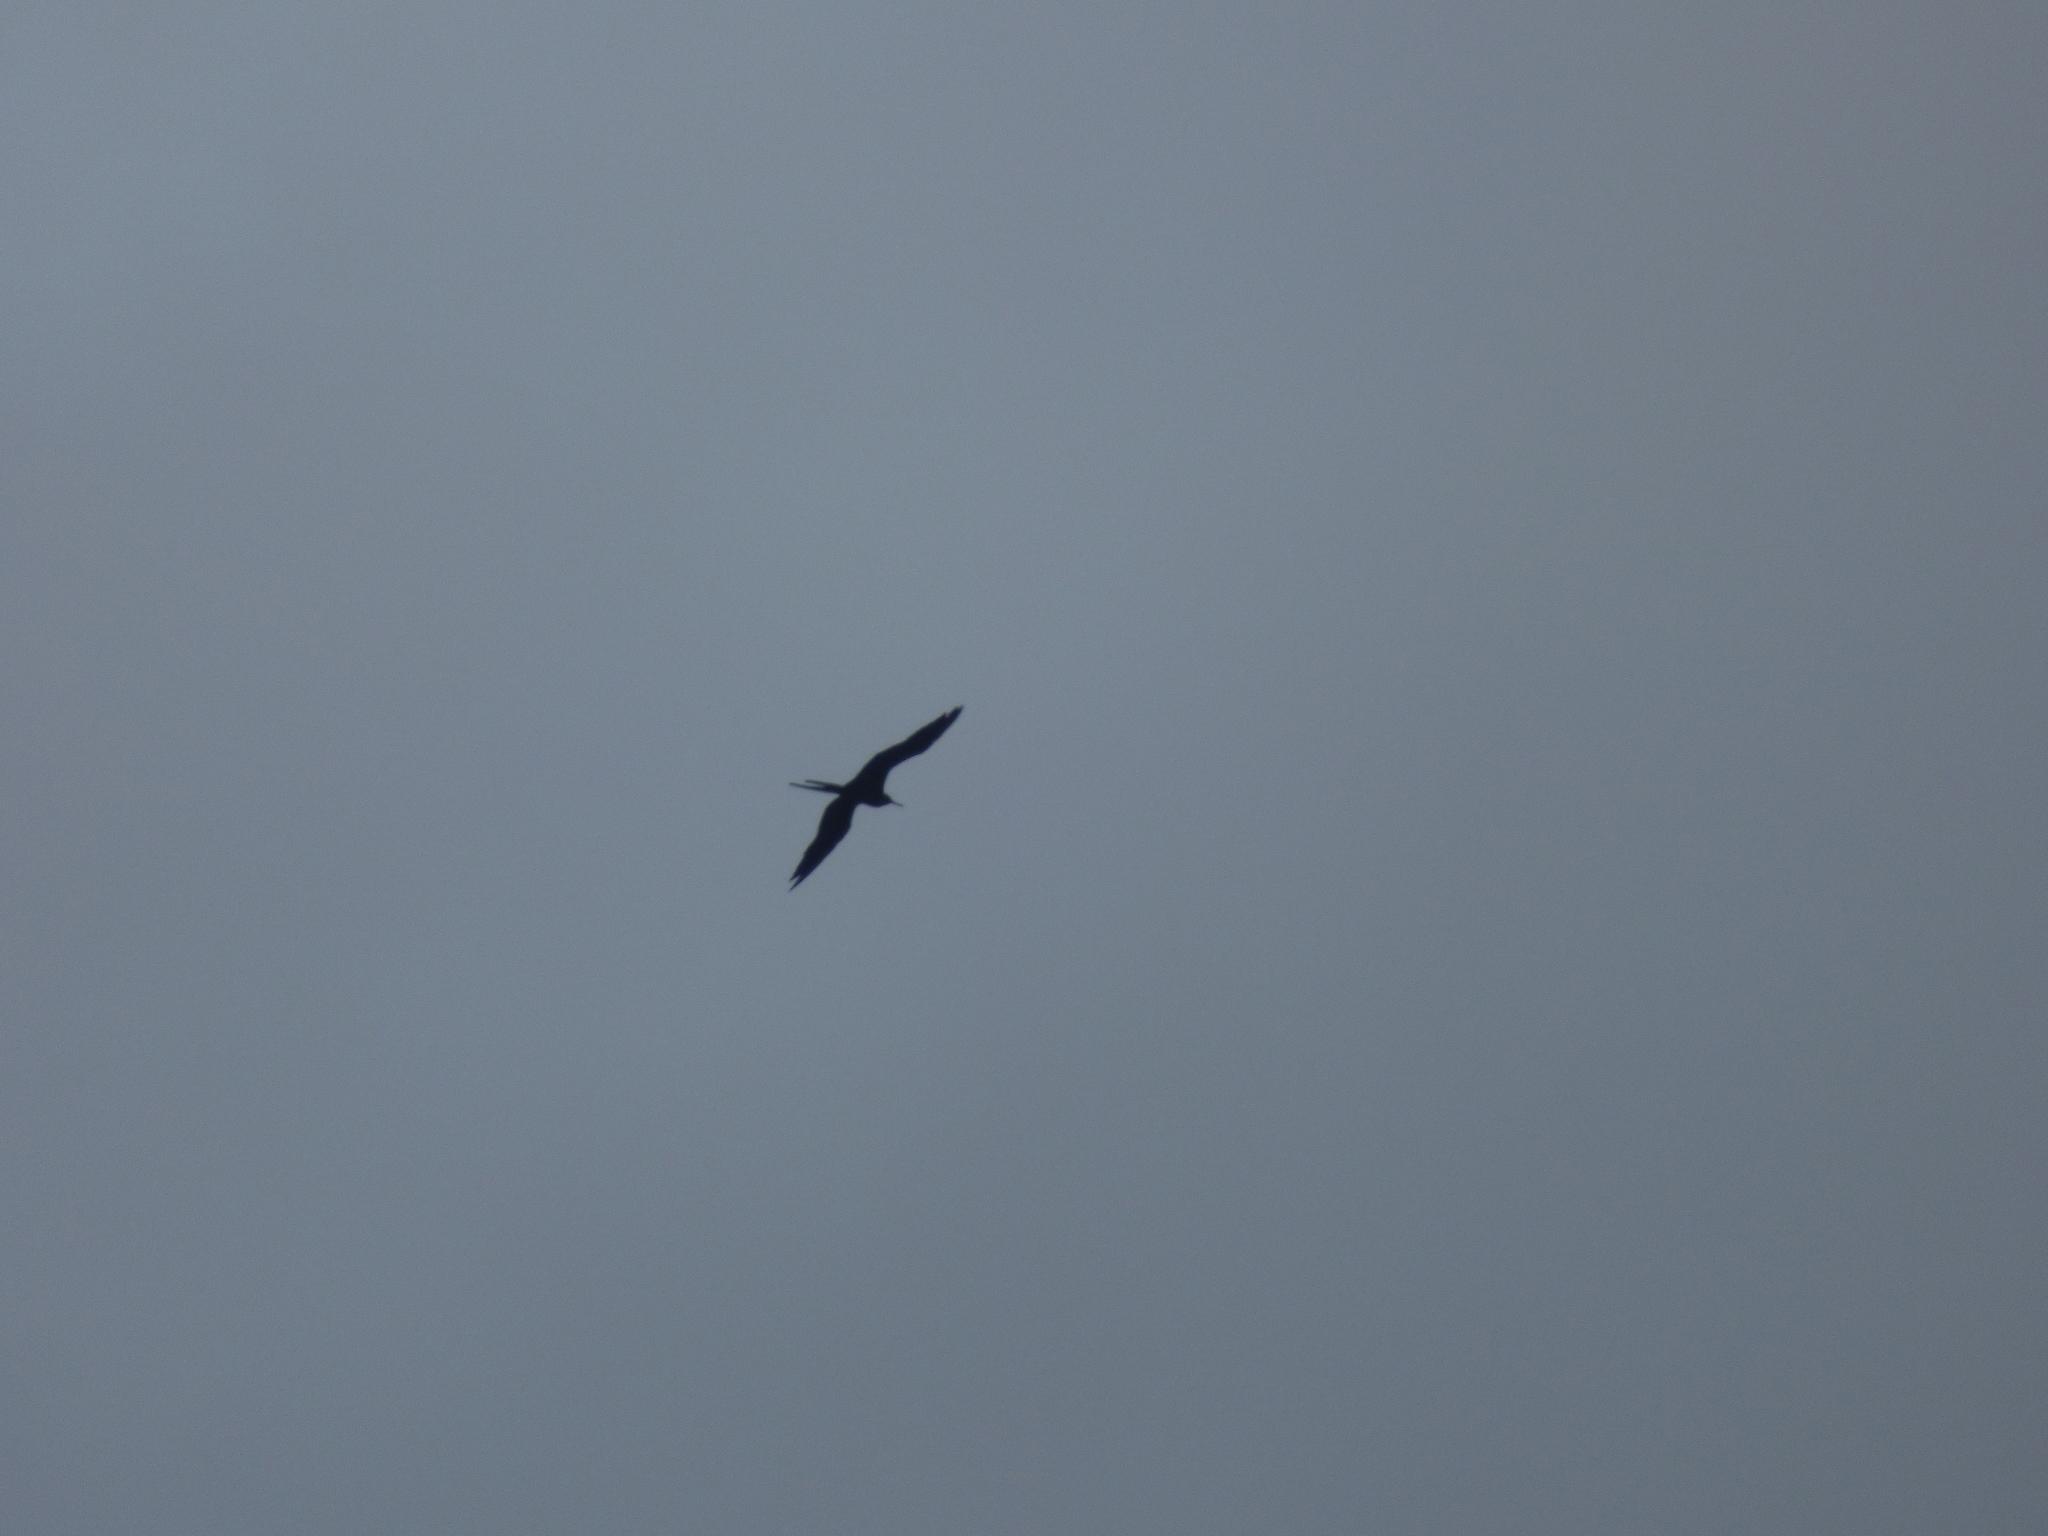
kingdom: Animalia
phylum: Chordata
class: Aves
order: Suliformes
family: Fregatidae
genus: Fregata
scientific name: Fregata magnificens
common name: Magnificent frigatebird
